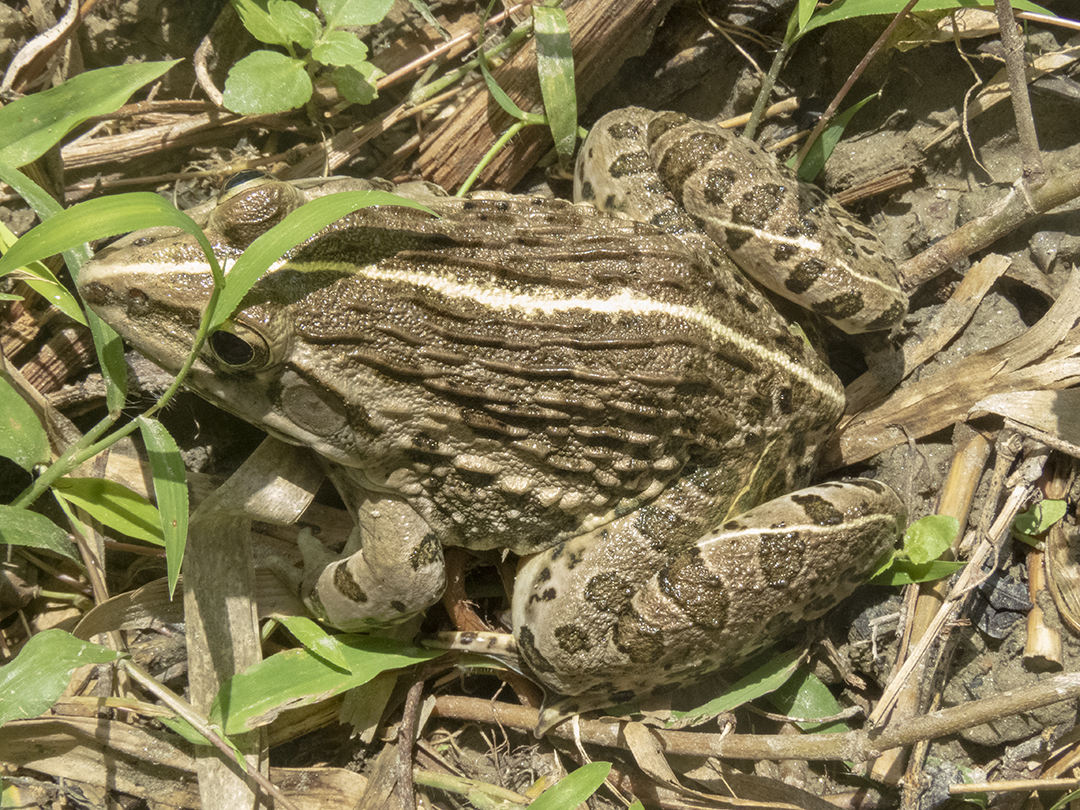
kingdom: Animalia
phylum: Chordata
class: Amphibia
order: Anura
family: Dicroglossidae
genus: Hoplobatrachus
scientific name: Hoplobatrachus tigerinus
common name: Indian bullfrog
